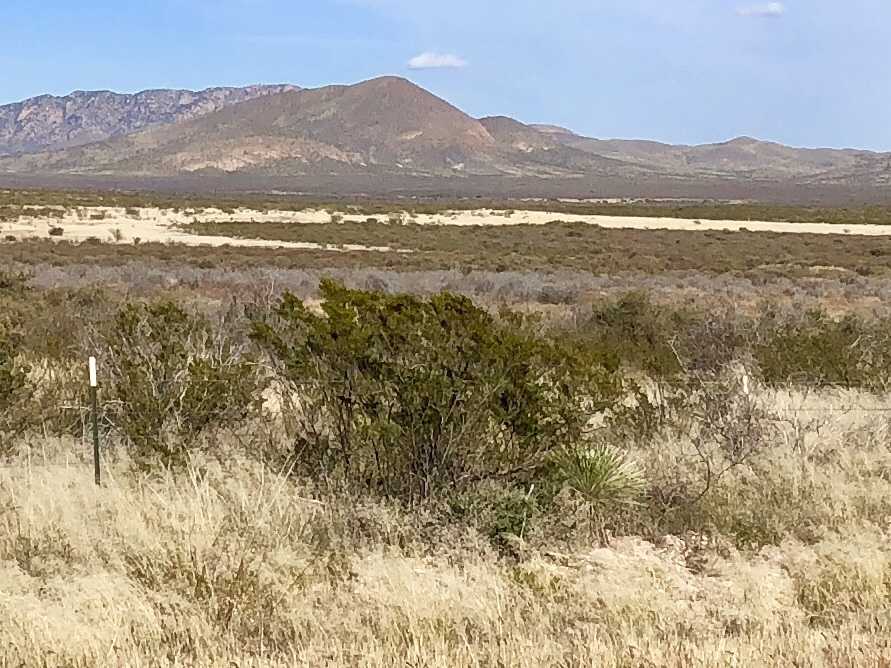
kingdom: Plantae
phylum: Tracheophyta
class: Magnoliopsida
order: Zygophyllales
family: Zygophyllaceae
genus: Larrea
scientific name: Larrea tridentata
